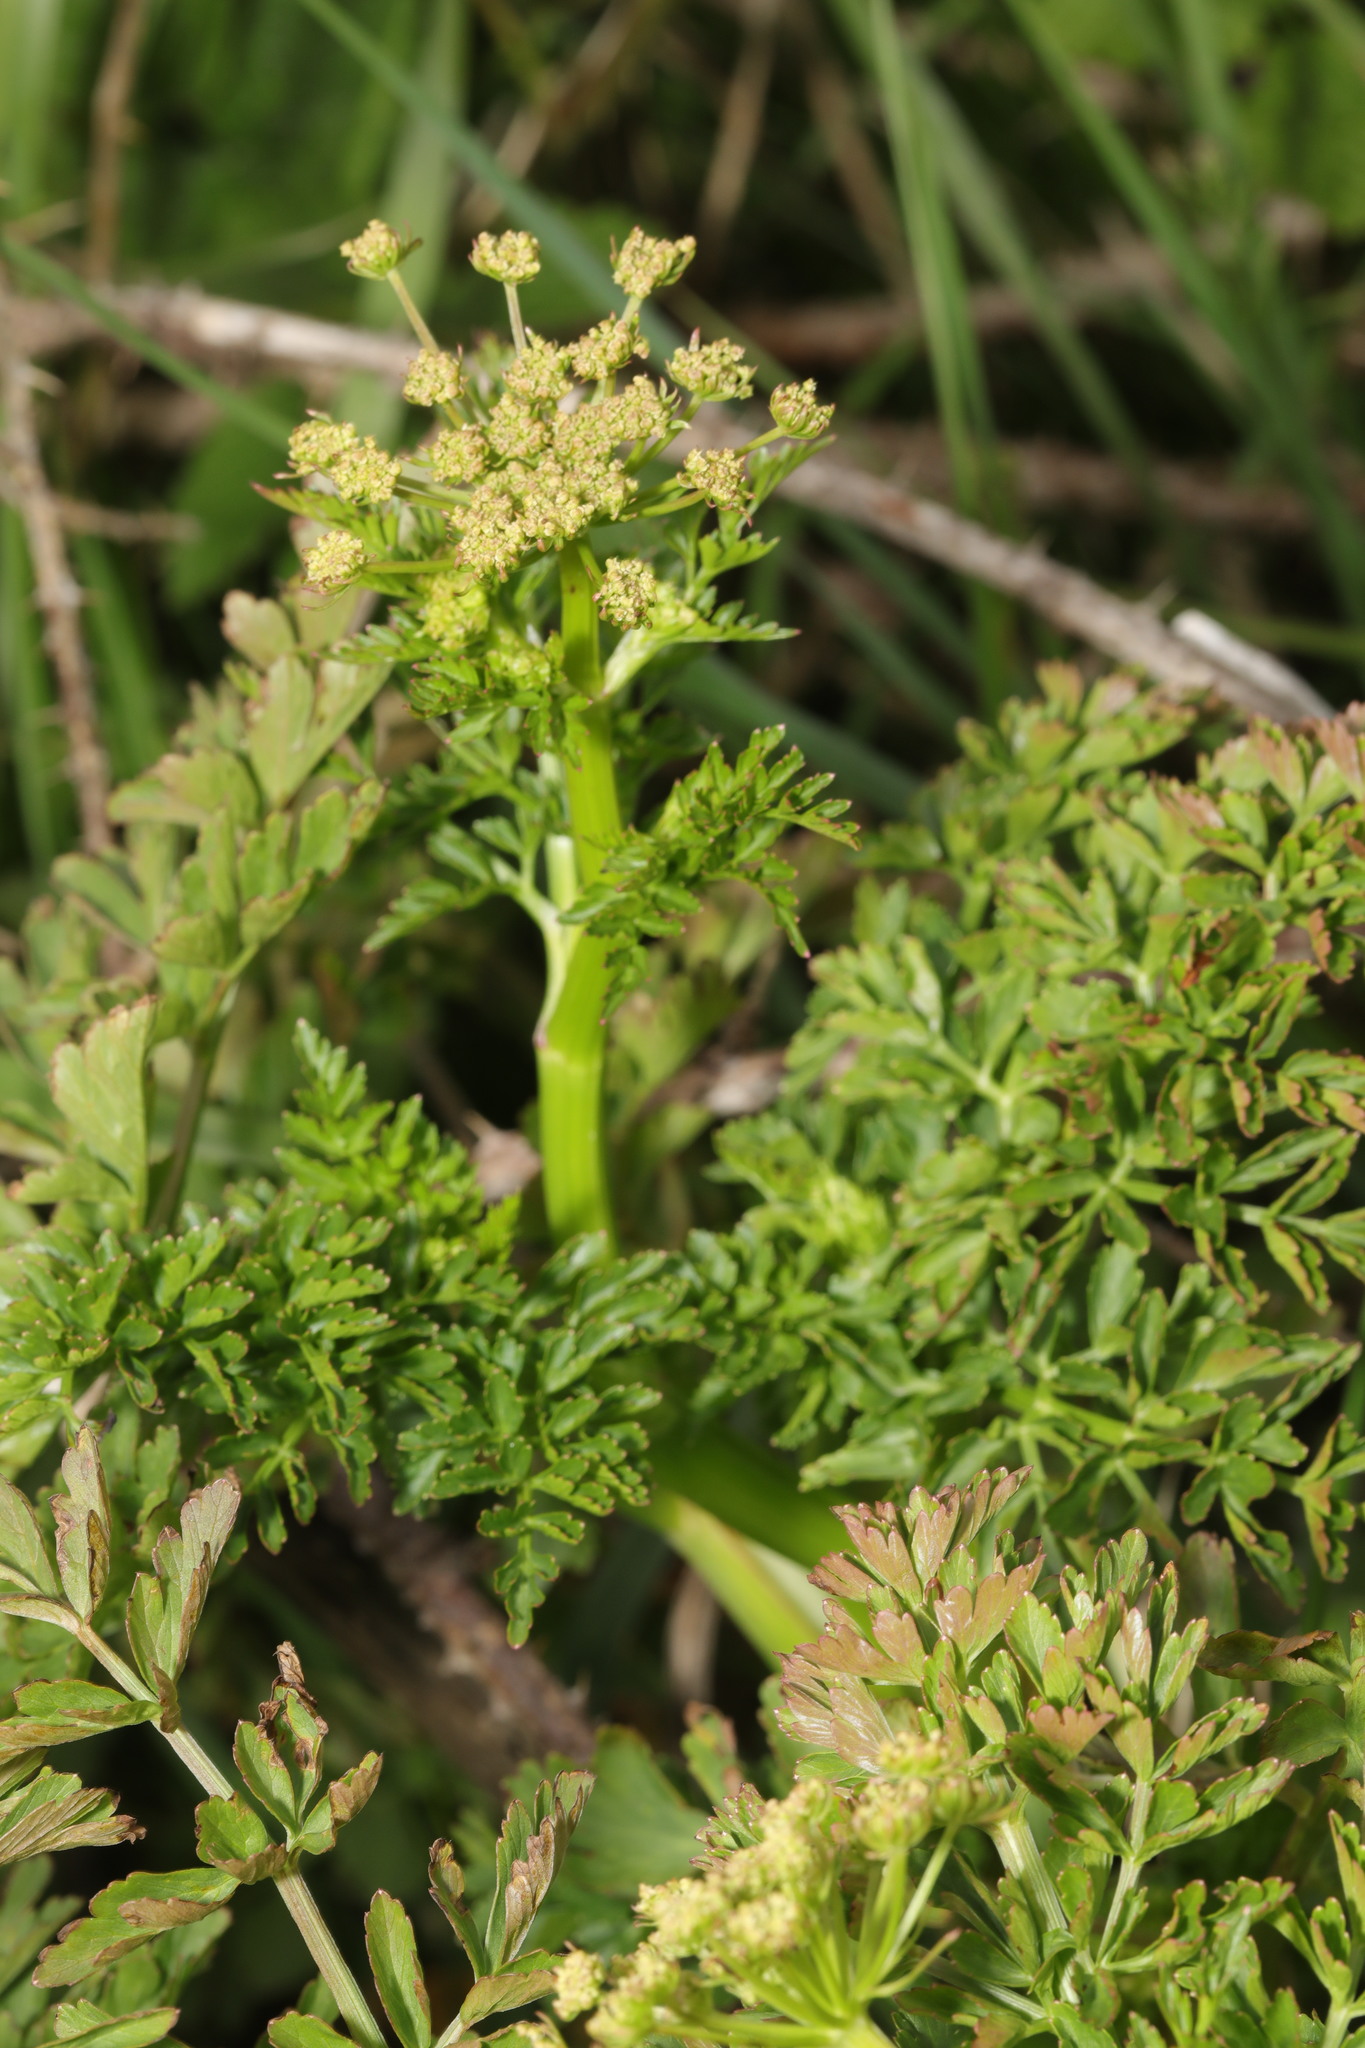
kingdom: Plantae
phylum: Tracheophyta
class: Magnoliopsida
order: Apiales
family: Apiaceae
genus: Oenanthe
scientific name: Oenanthe crocata
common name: Hemlock water-dropwort
